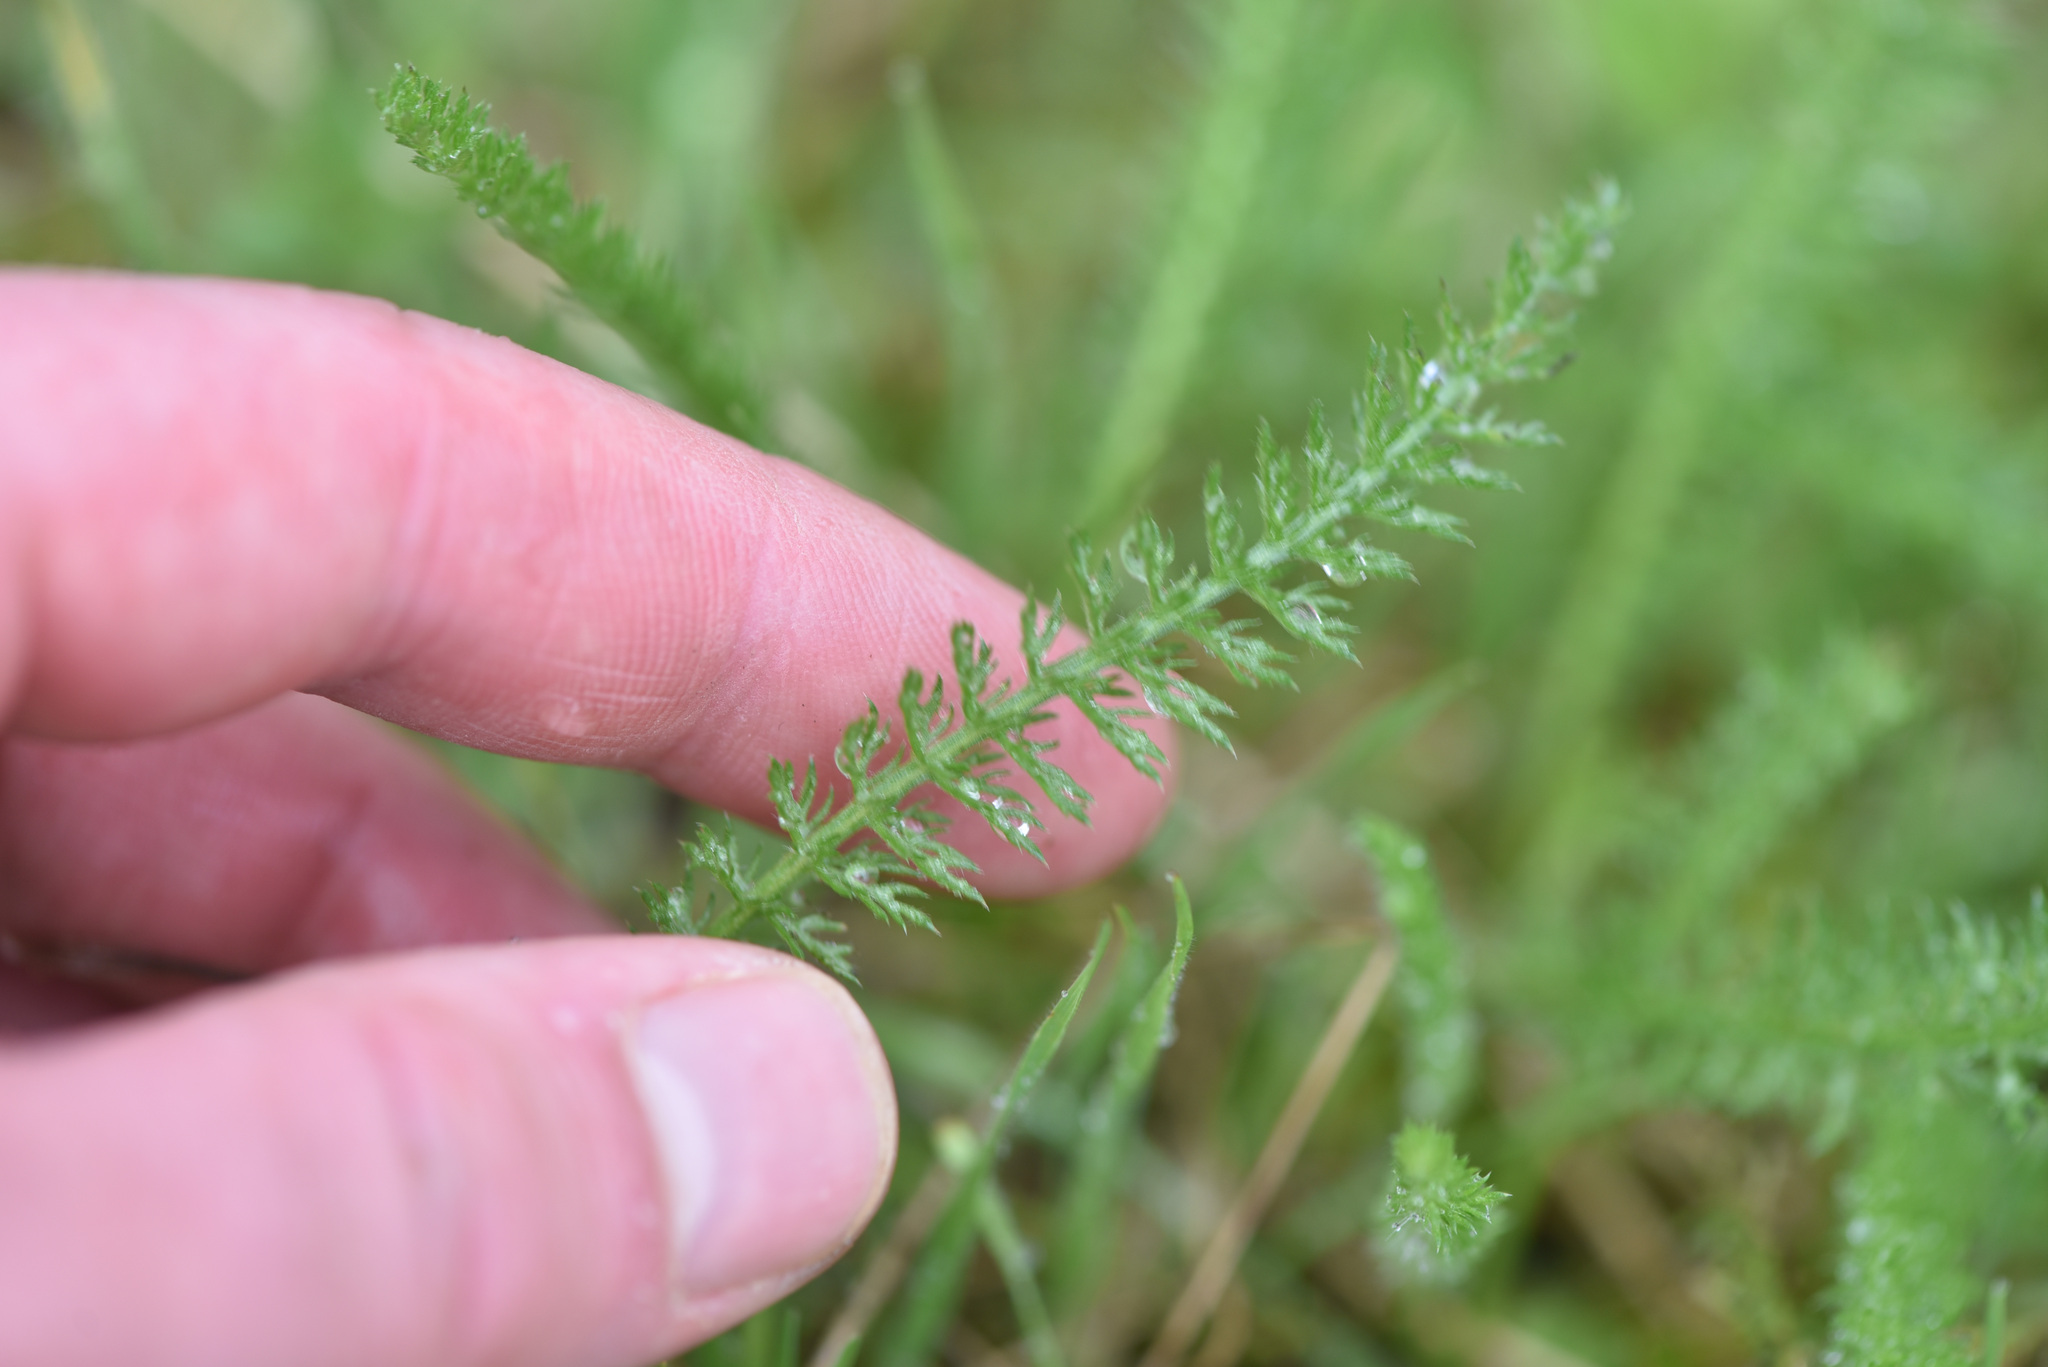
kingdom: Plantae
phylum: Tracheophyta
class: Magnoliopsida
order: Asterales
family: Asteraceae
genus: Achillea
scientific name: Achillea millefolium
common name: Yarrow
